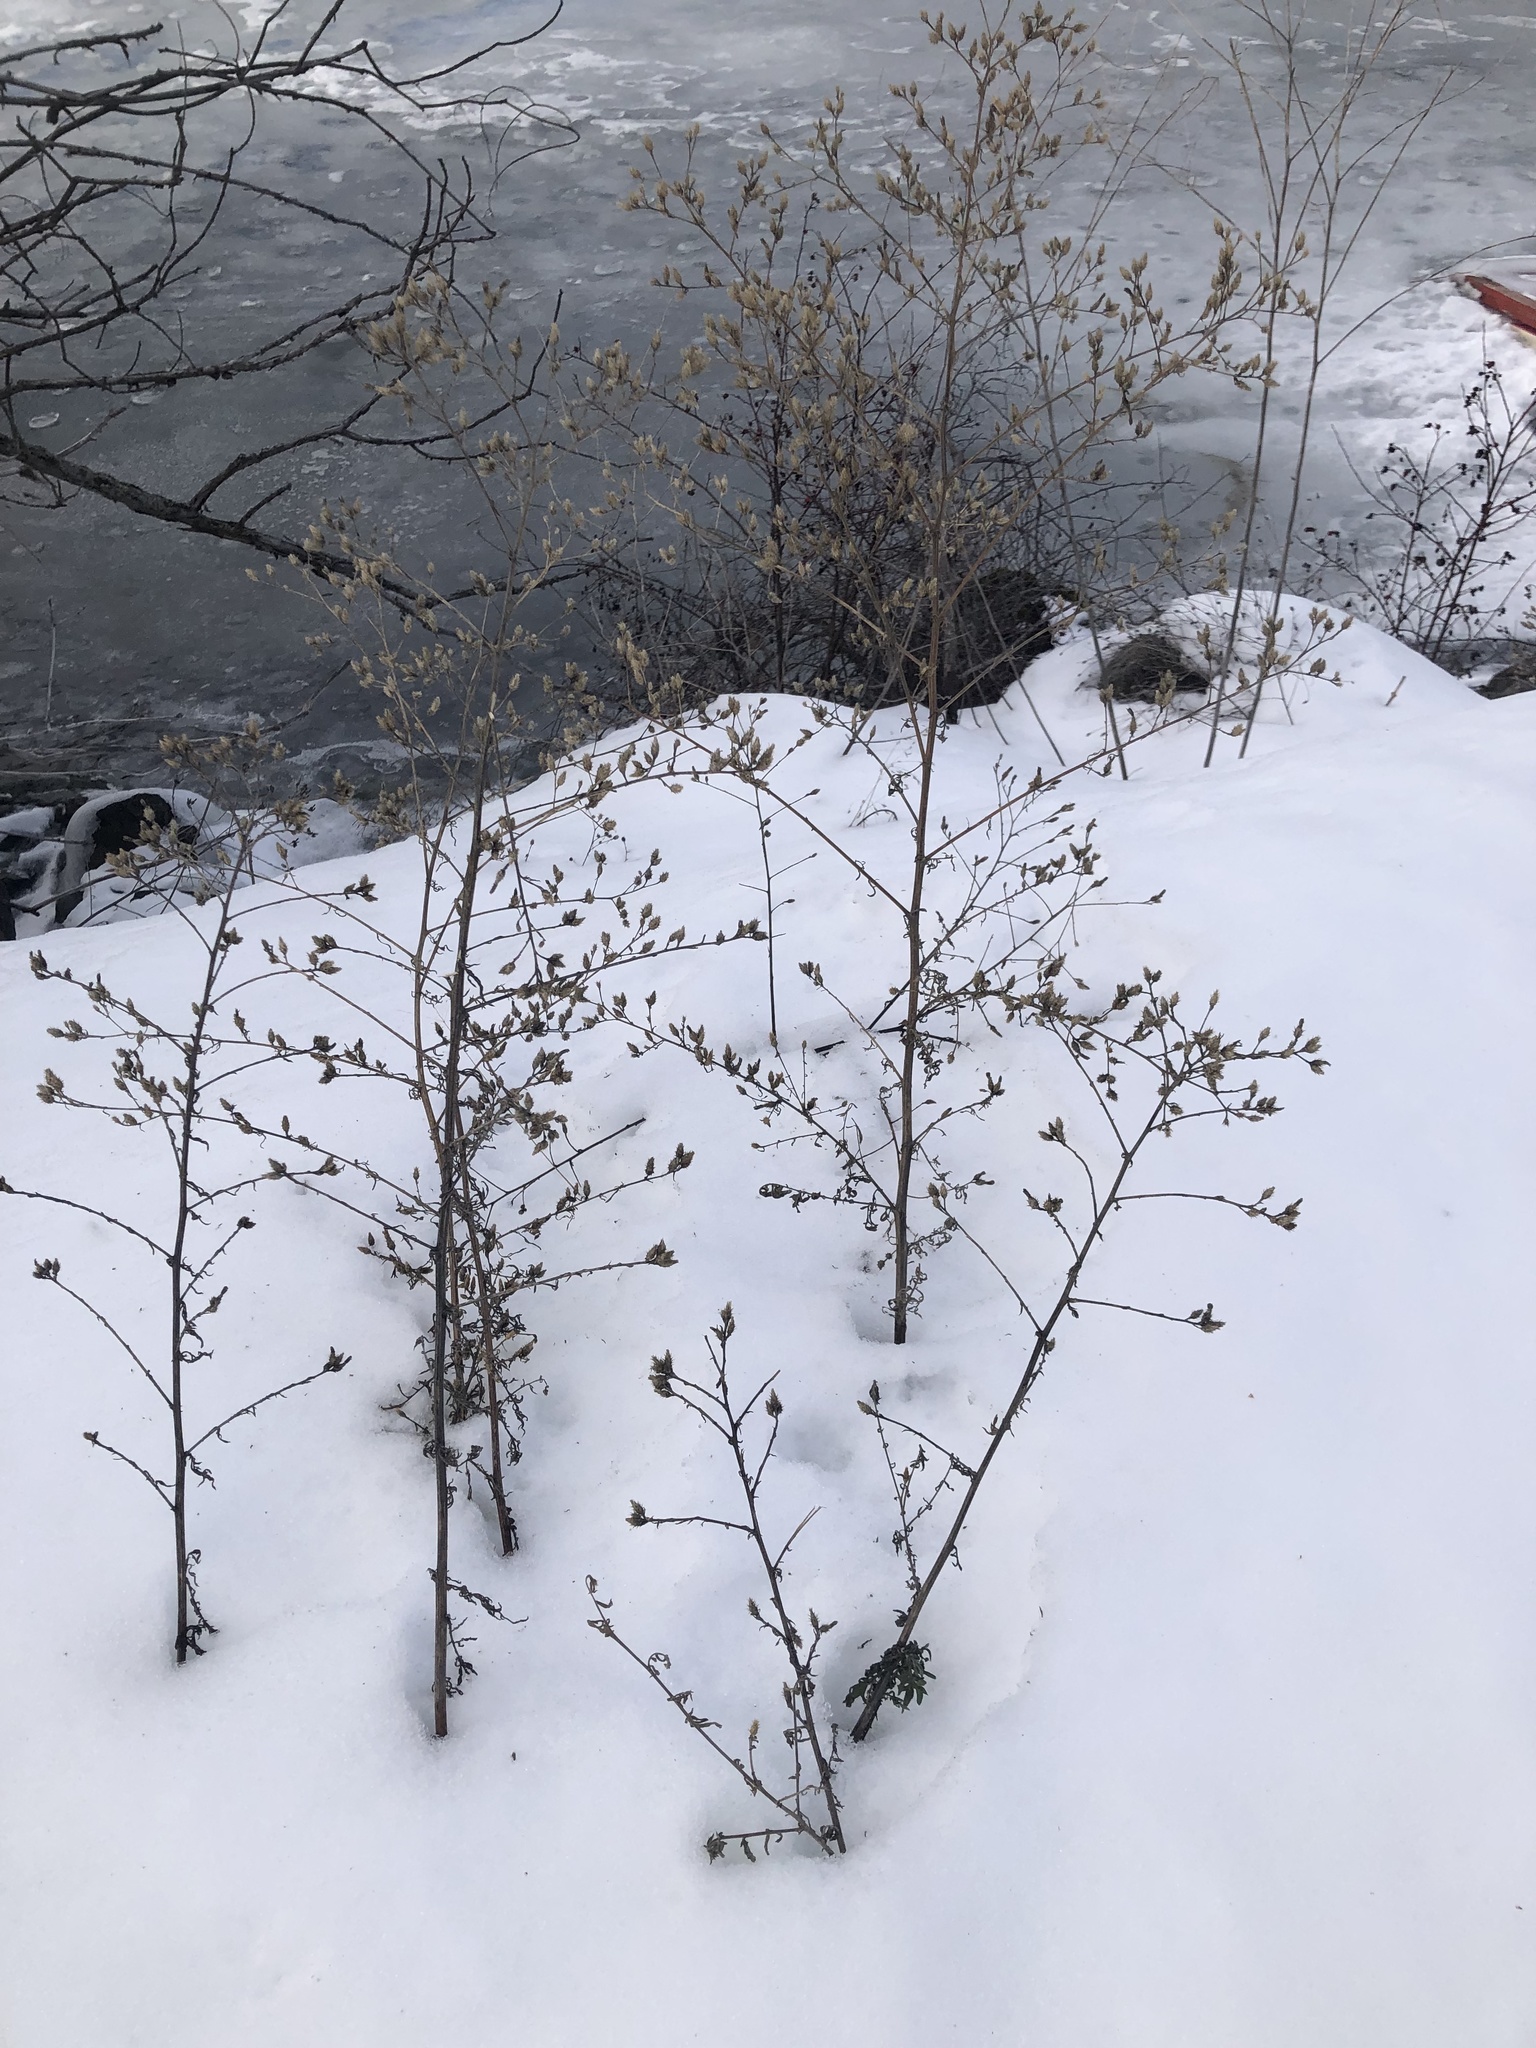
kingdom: Plantae
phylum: Tracheophyta
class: Magnoliopsida
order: Asterales
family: Asteraceae
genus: Centaurea
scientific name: Centaurea diffusa
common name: Diffuse knapweed
